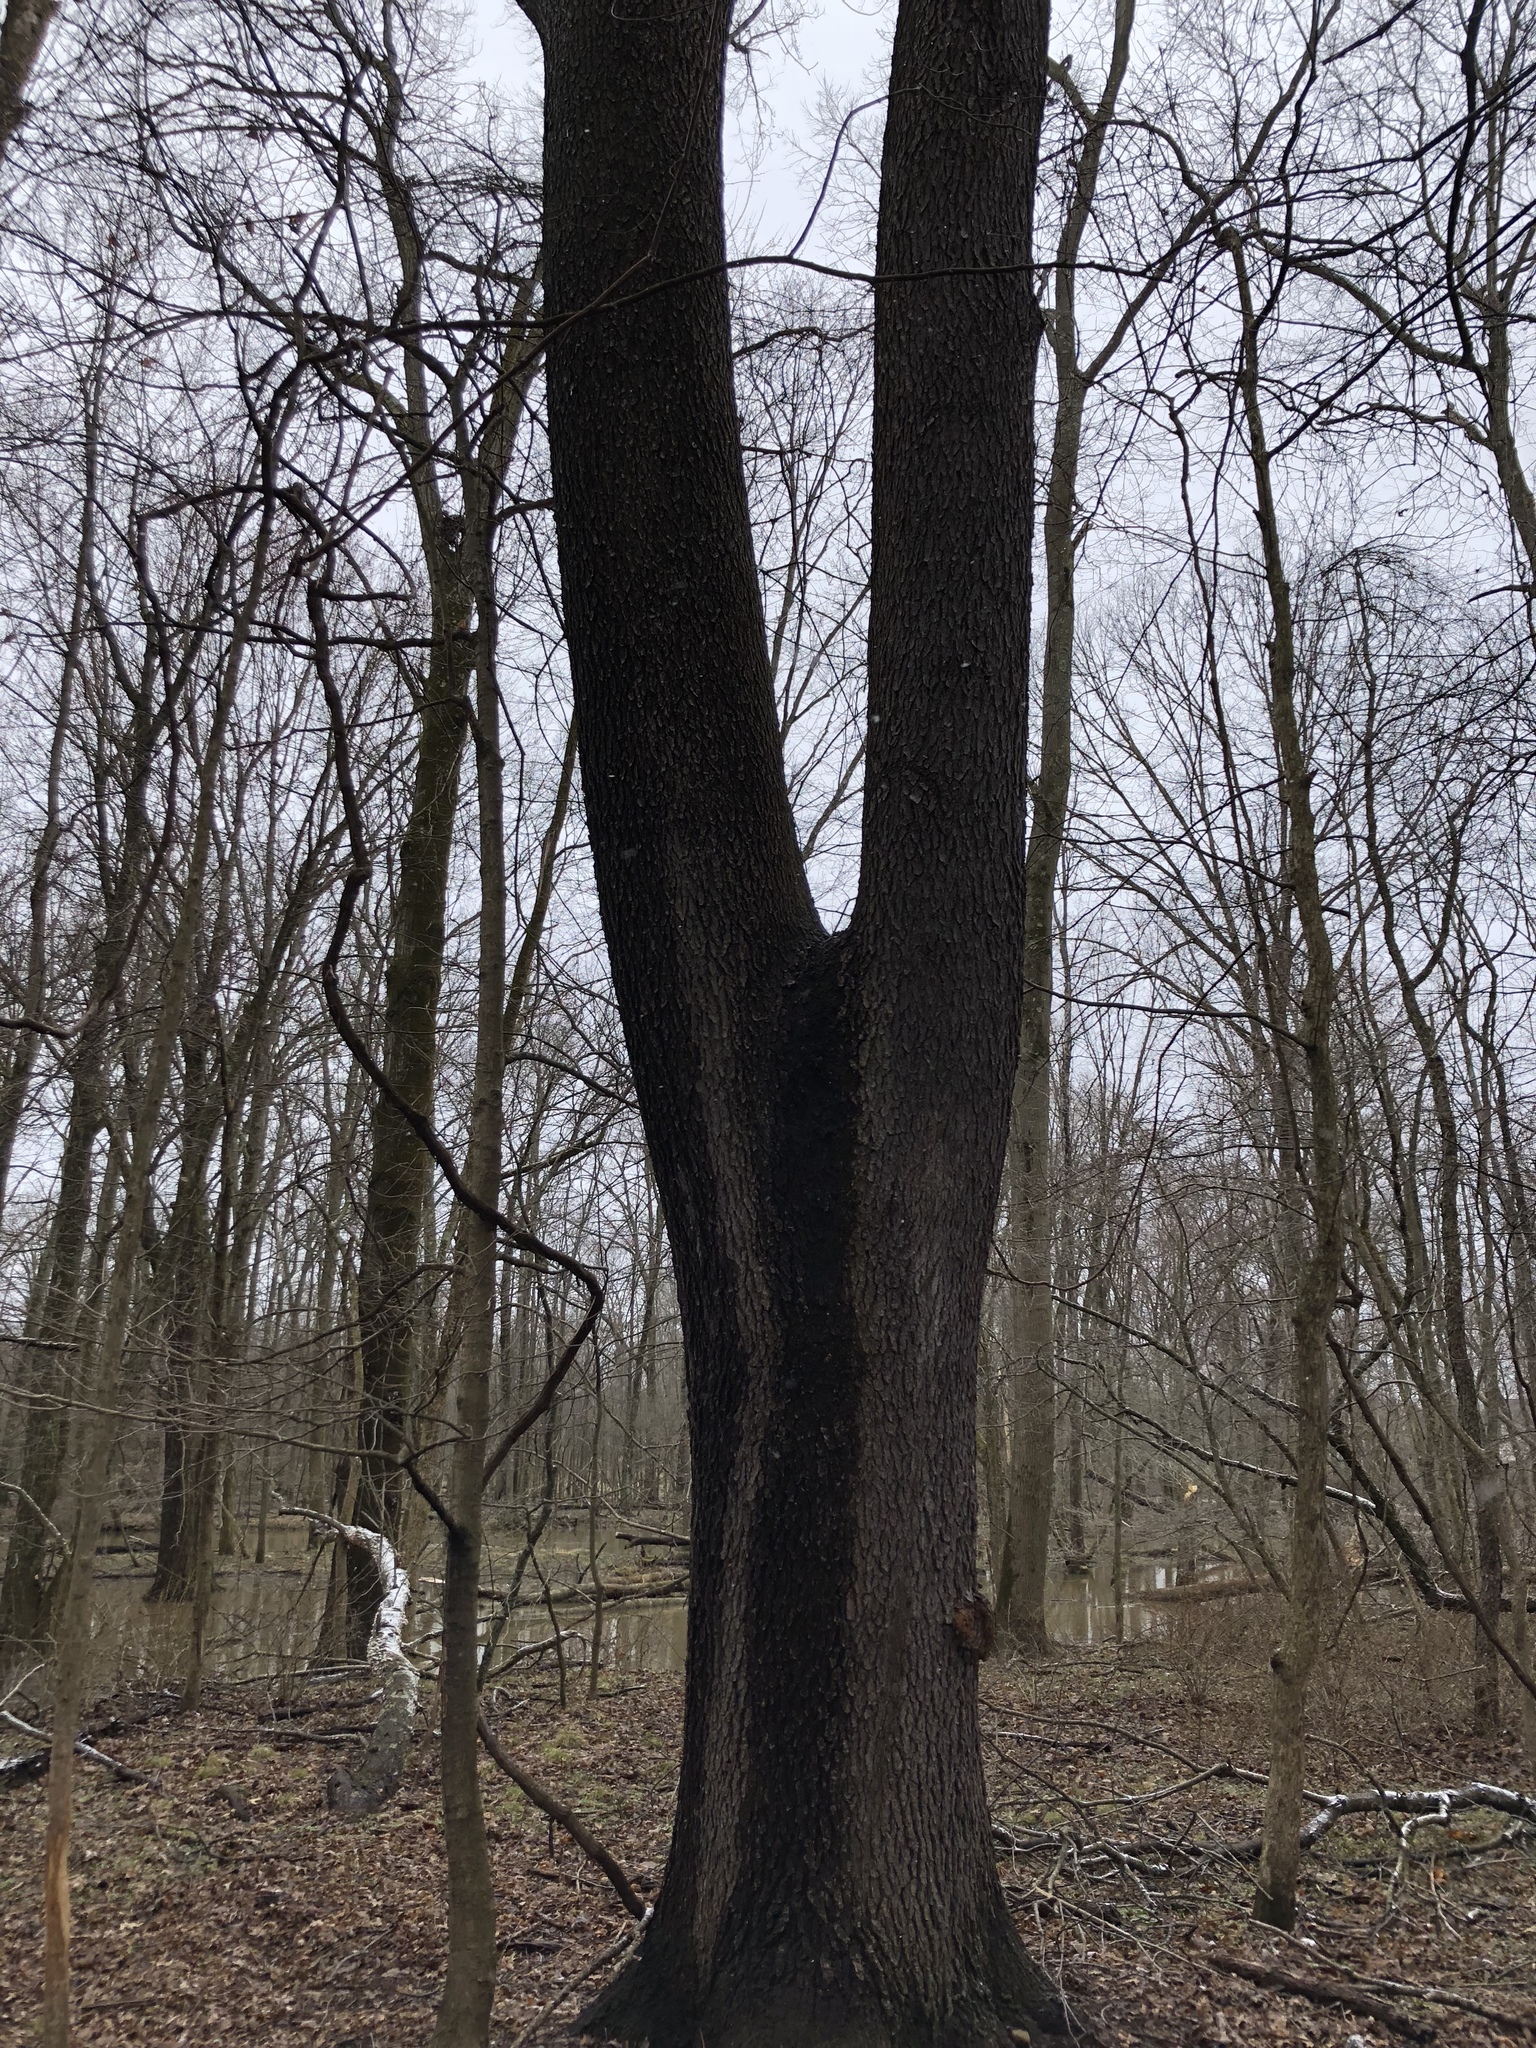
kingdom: Plantae
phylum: Tracheophyta
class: Magnoliopsida
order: Rosales
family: Rosaceae
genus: Prunus
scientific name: Prunus serotina
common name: Black cherry
